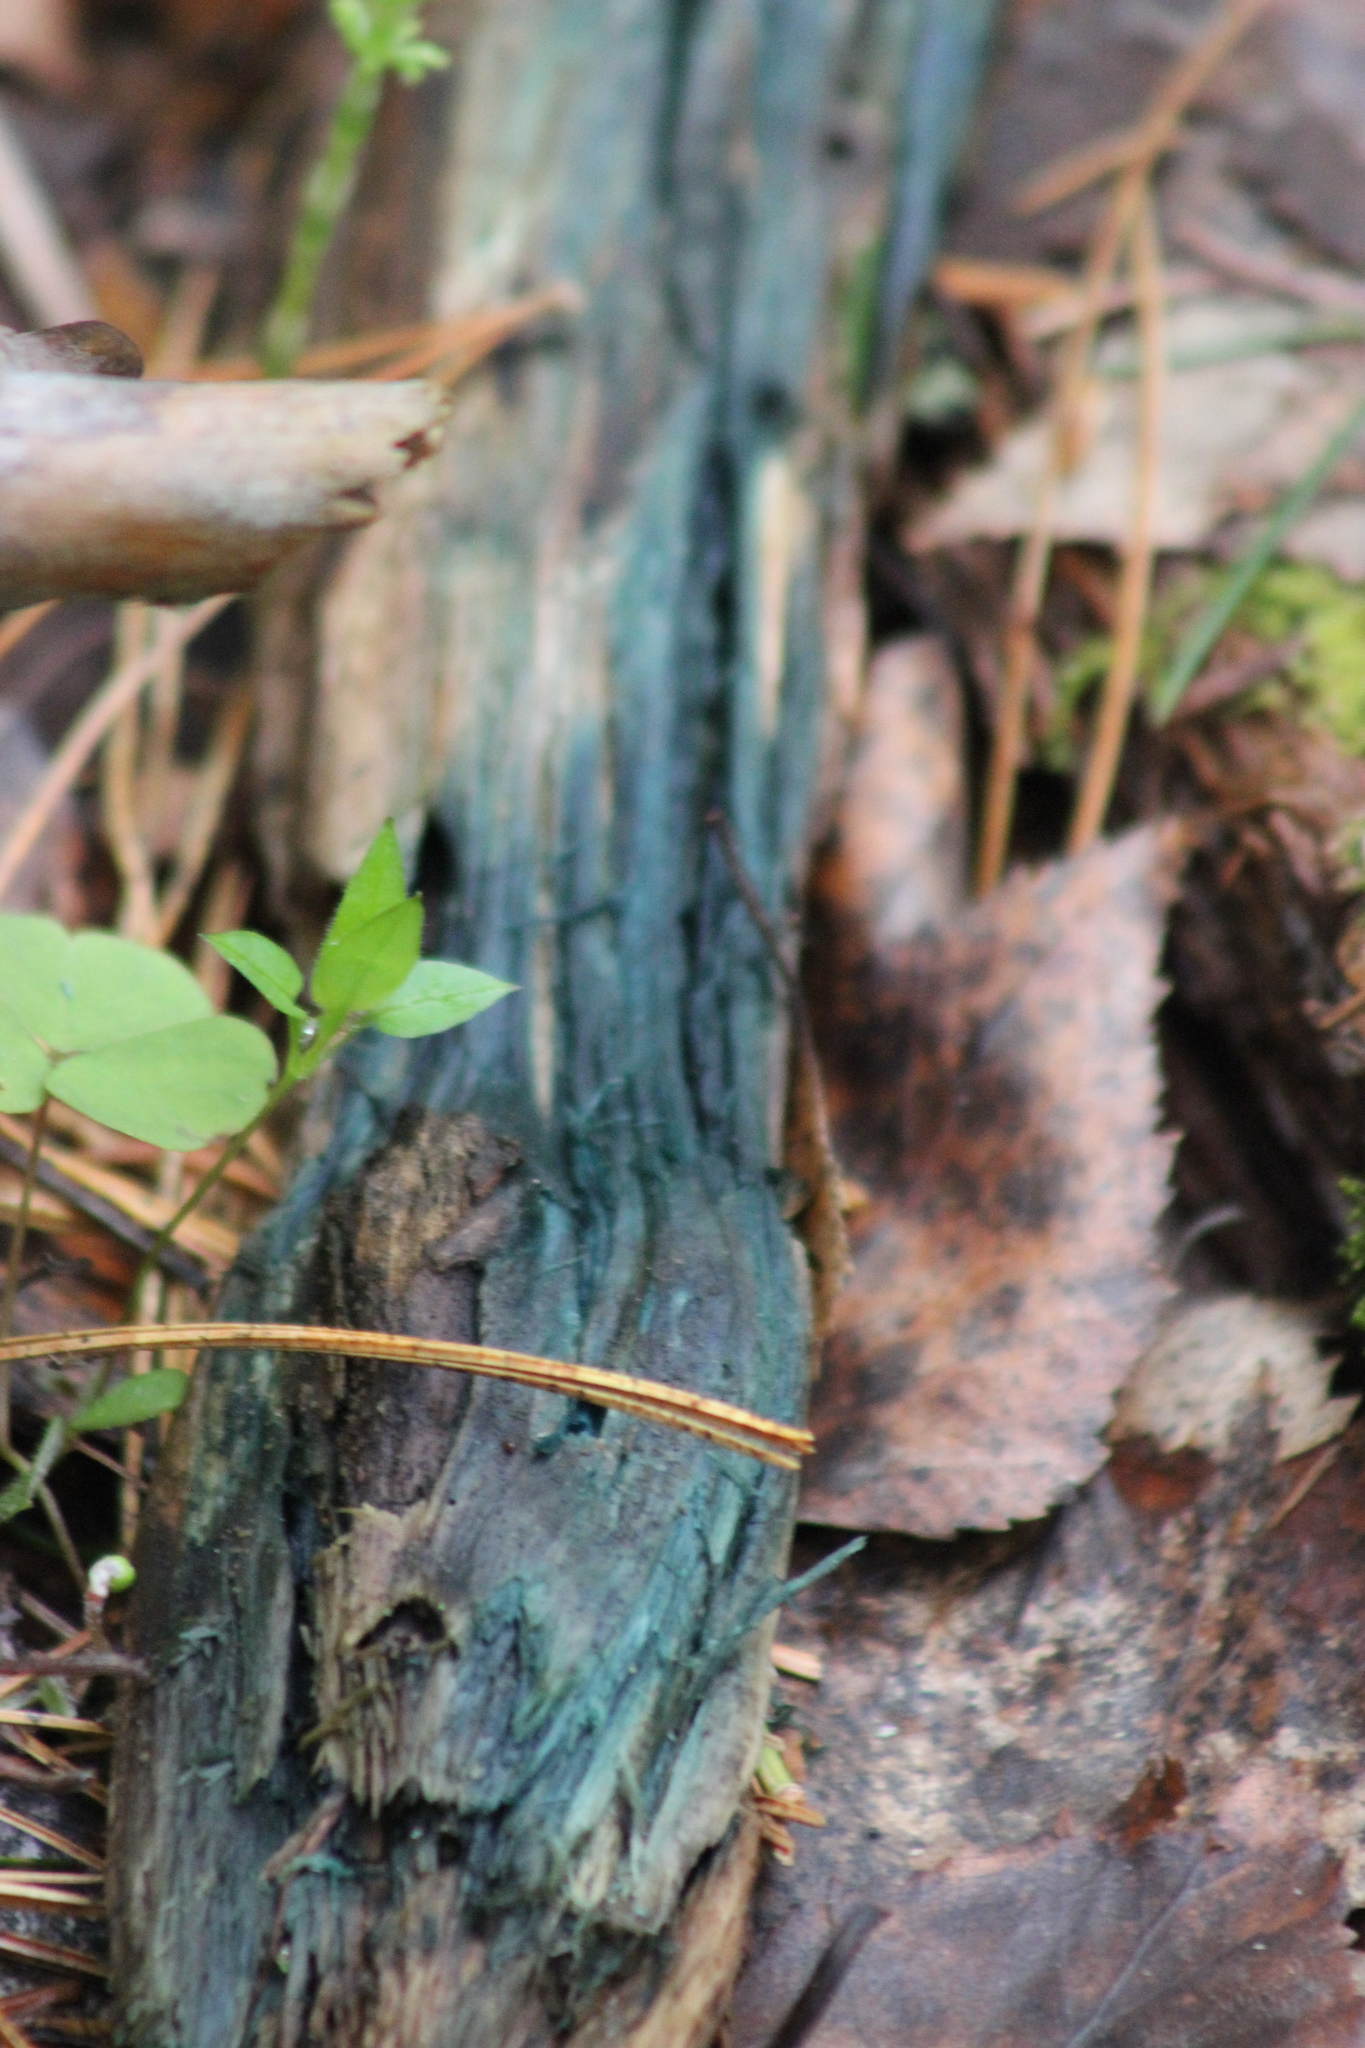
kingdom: Fungi
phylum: Ascomycota
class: Leotiomycetes
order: Helotiales
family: Chlorociboriaceae
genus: Chlorociboria
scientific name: Chlorociboria
